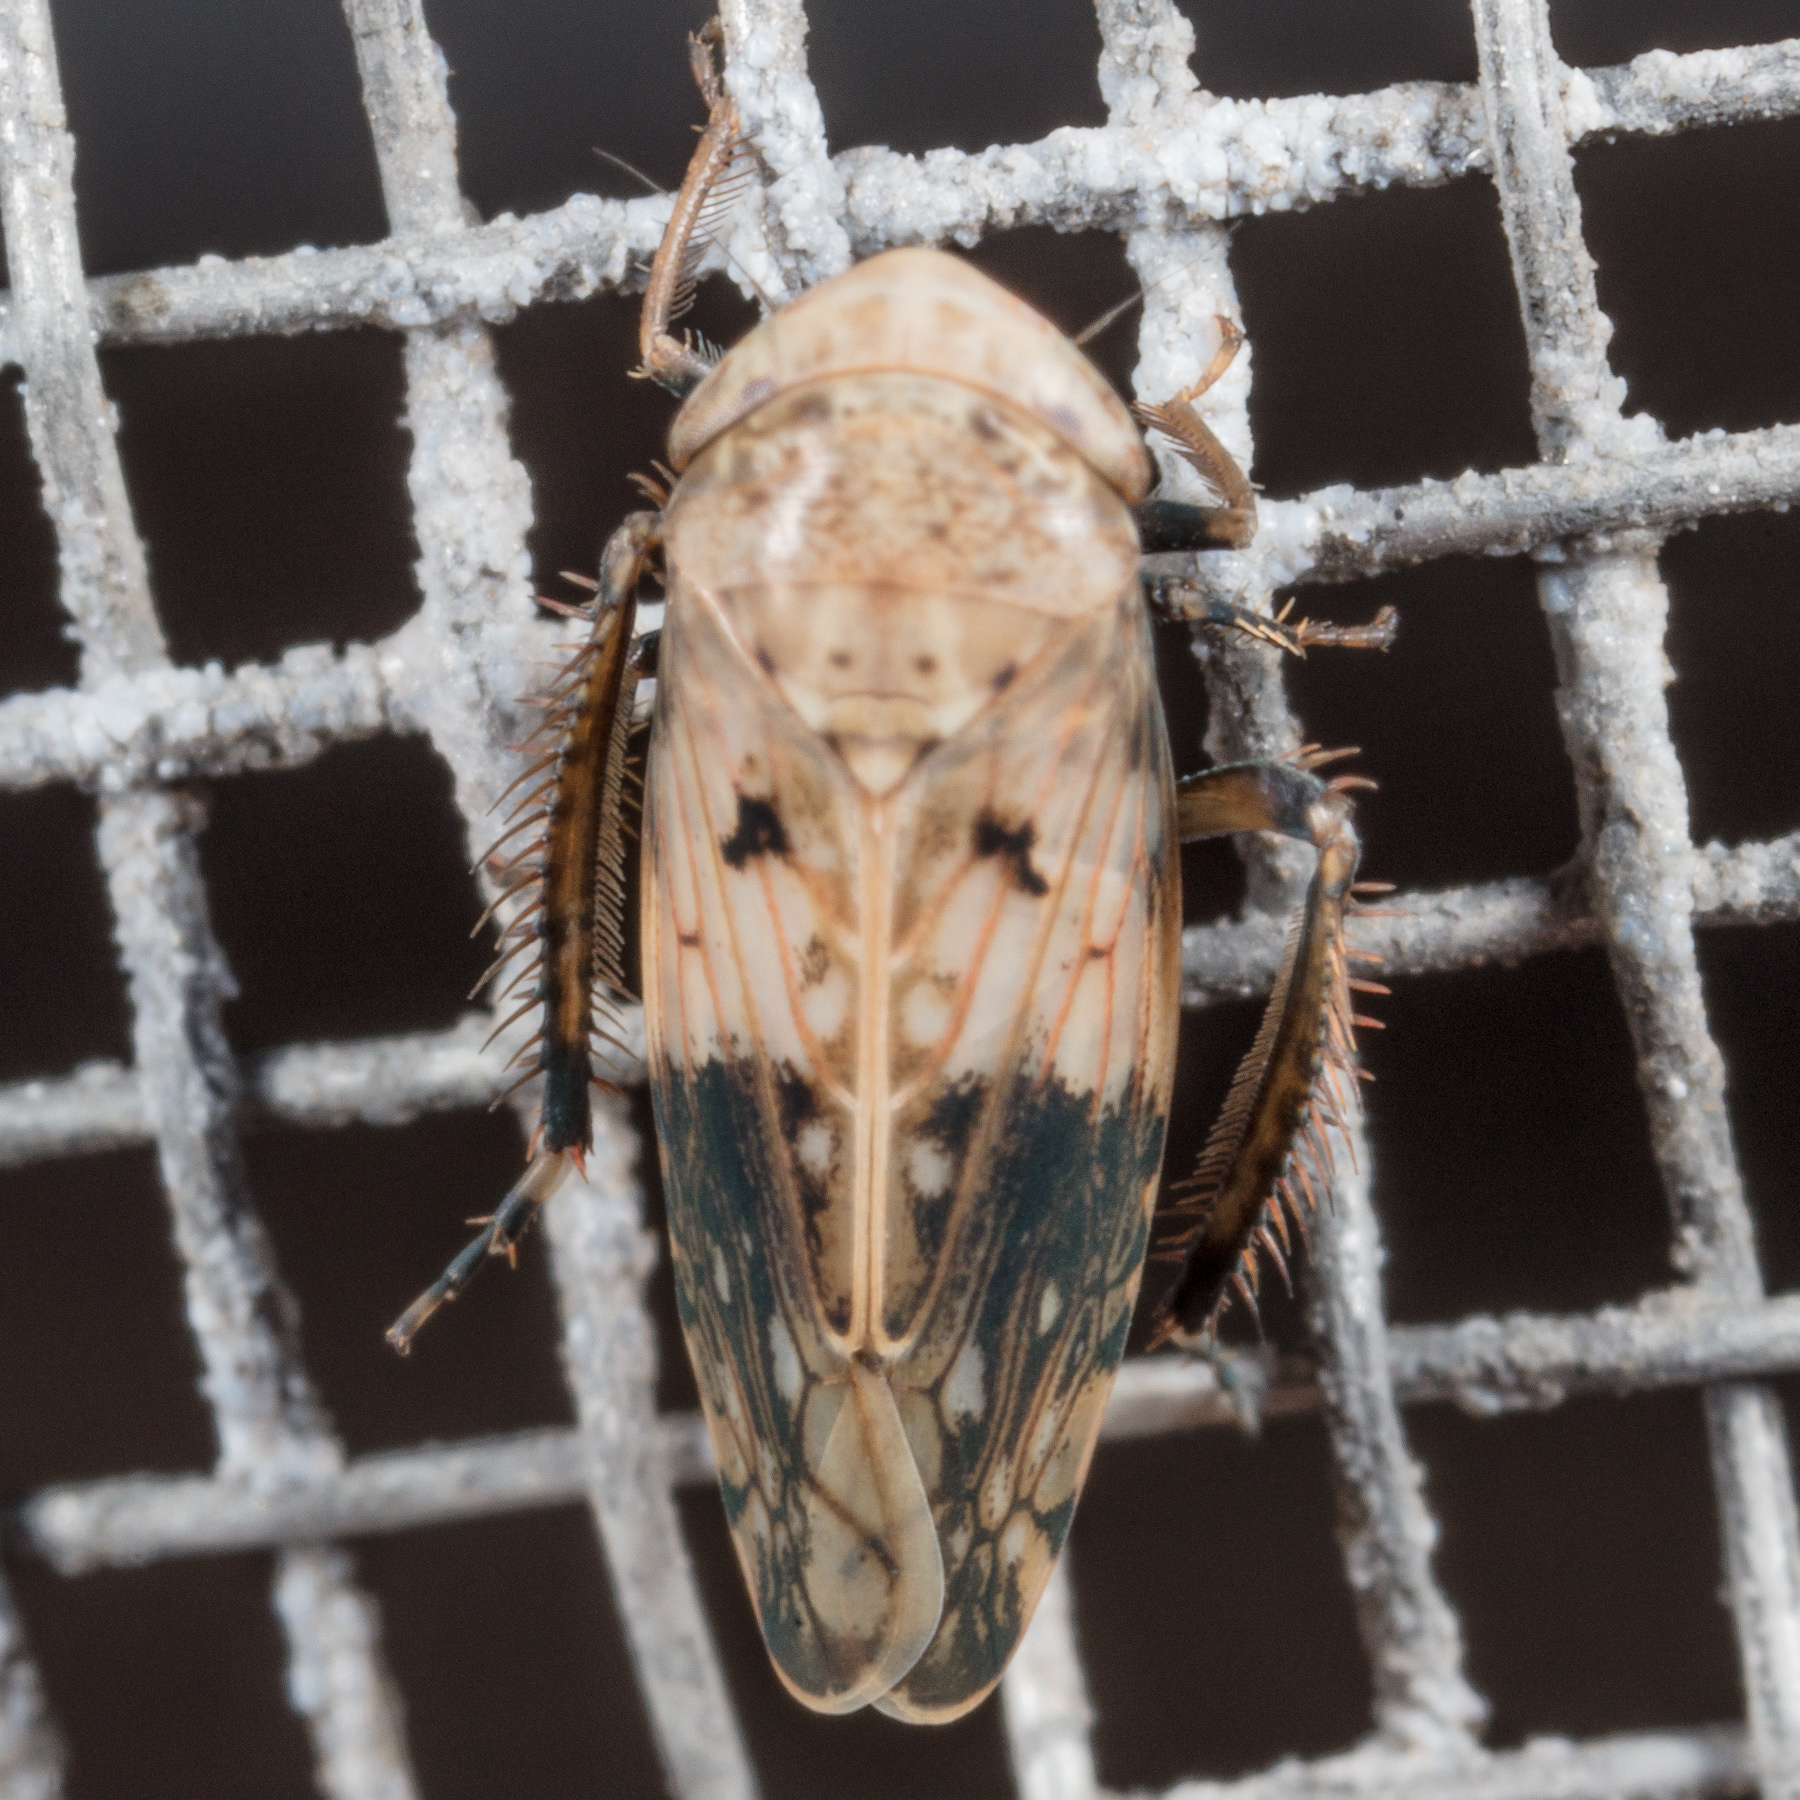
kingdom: Animalia
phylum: Arthropoda
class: Insecta
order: Hemiptera
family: Cicadellidae
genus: Menosoma
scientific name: Menosoma cinctum
